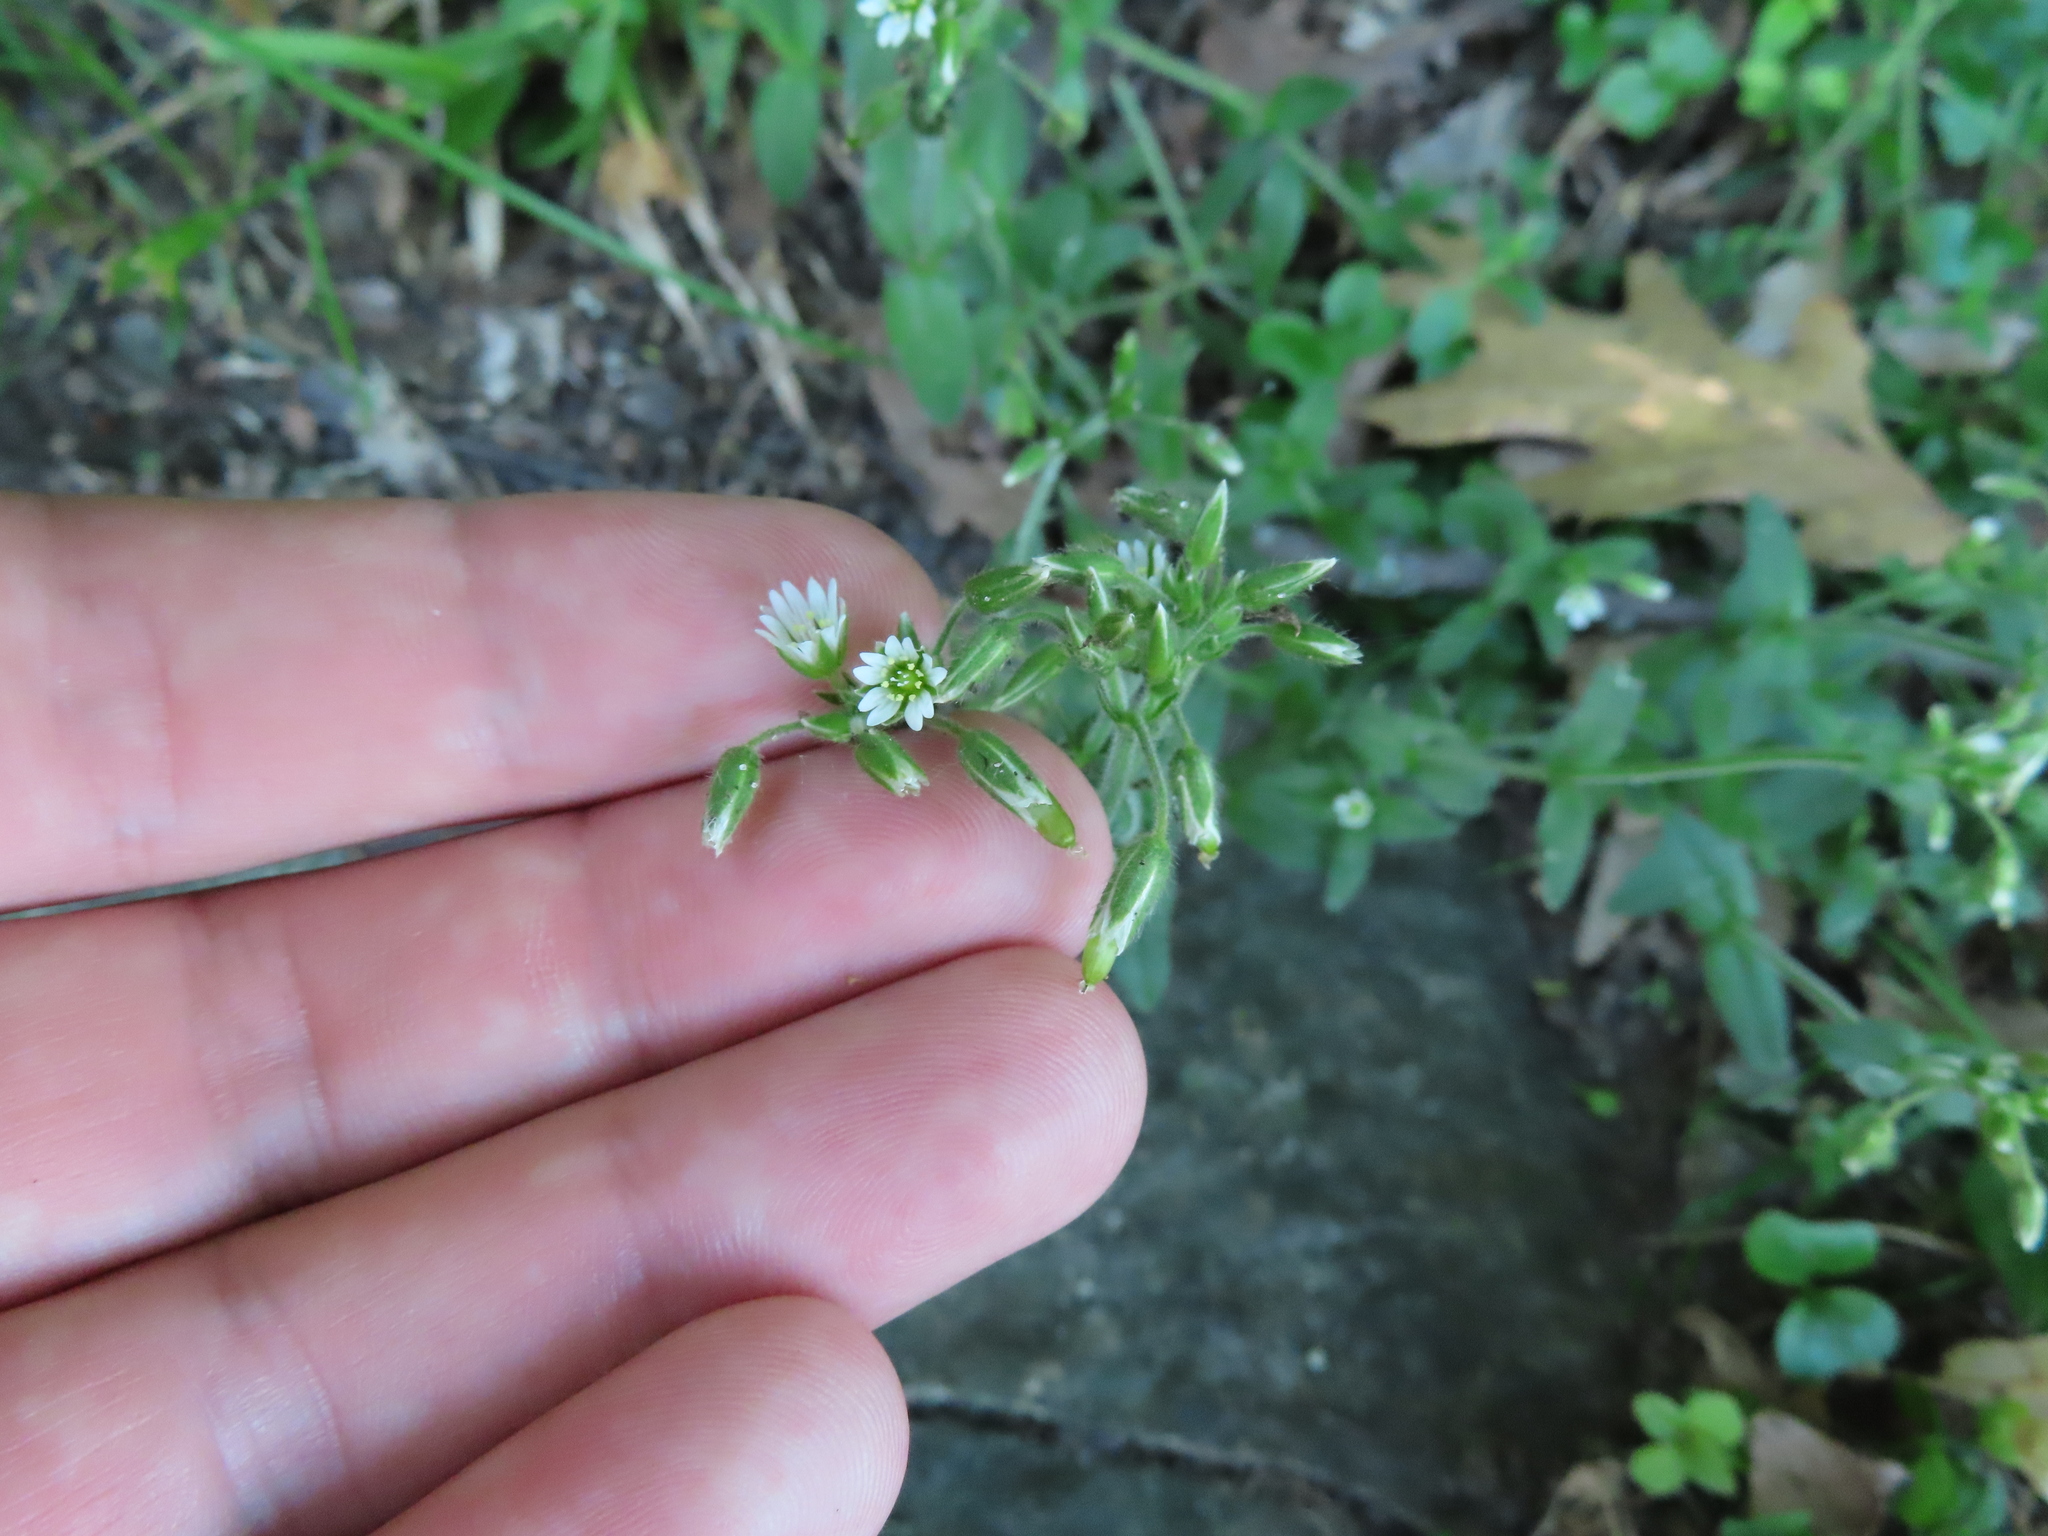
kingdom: Plantae
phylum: Tracheophyta
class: Magnoliopsida
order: Caryophyllales
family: Caryophyllaceae
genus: Cerastium
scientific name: Cerastium fontanum
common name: Common mouse-ear
